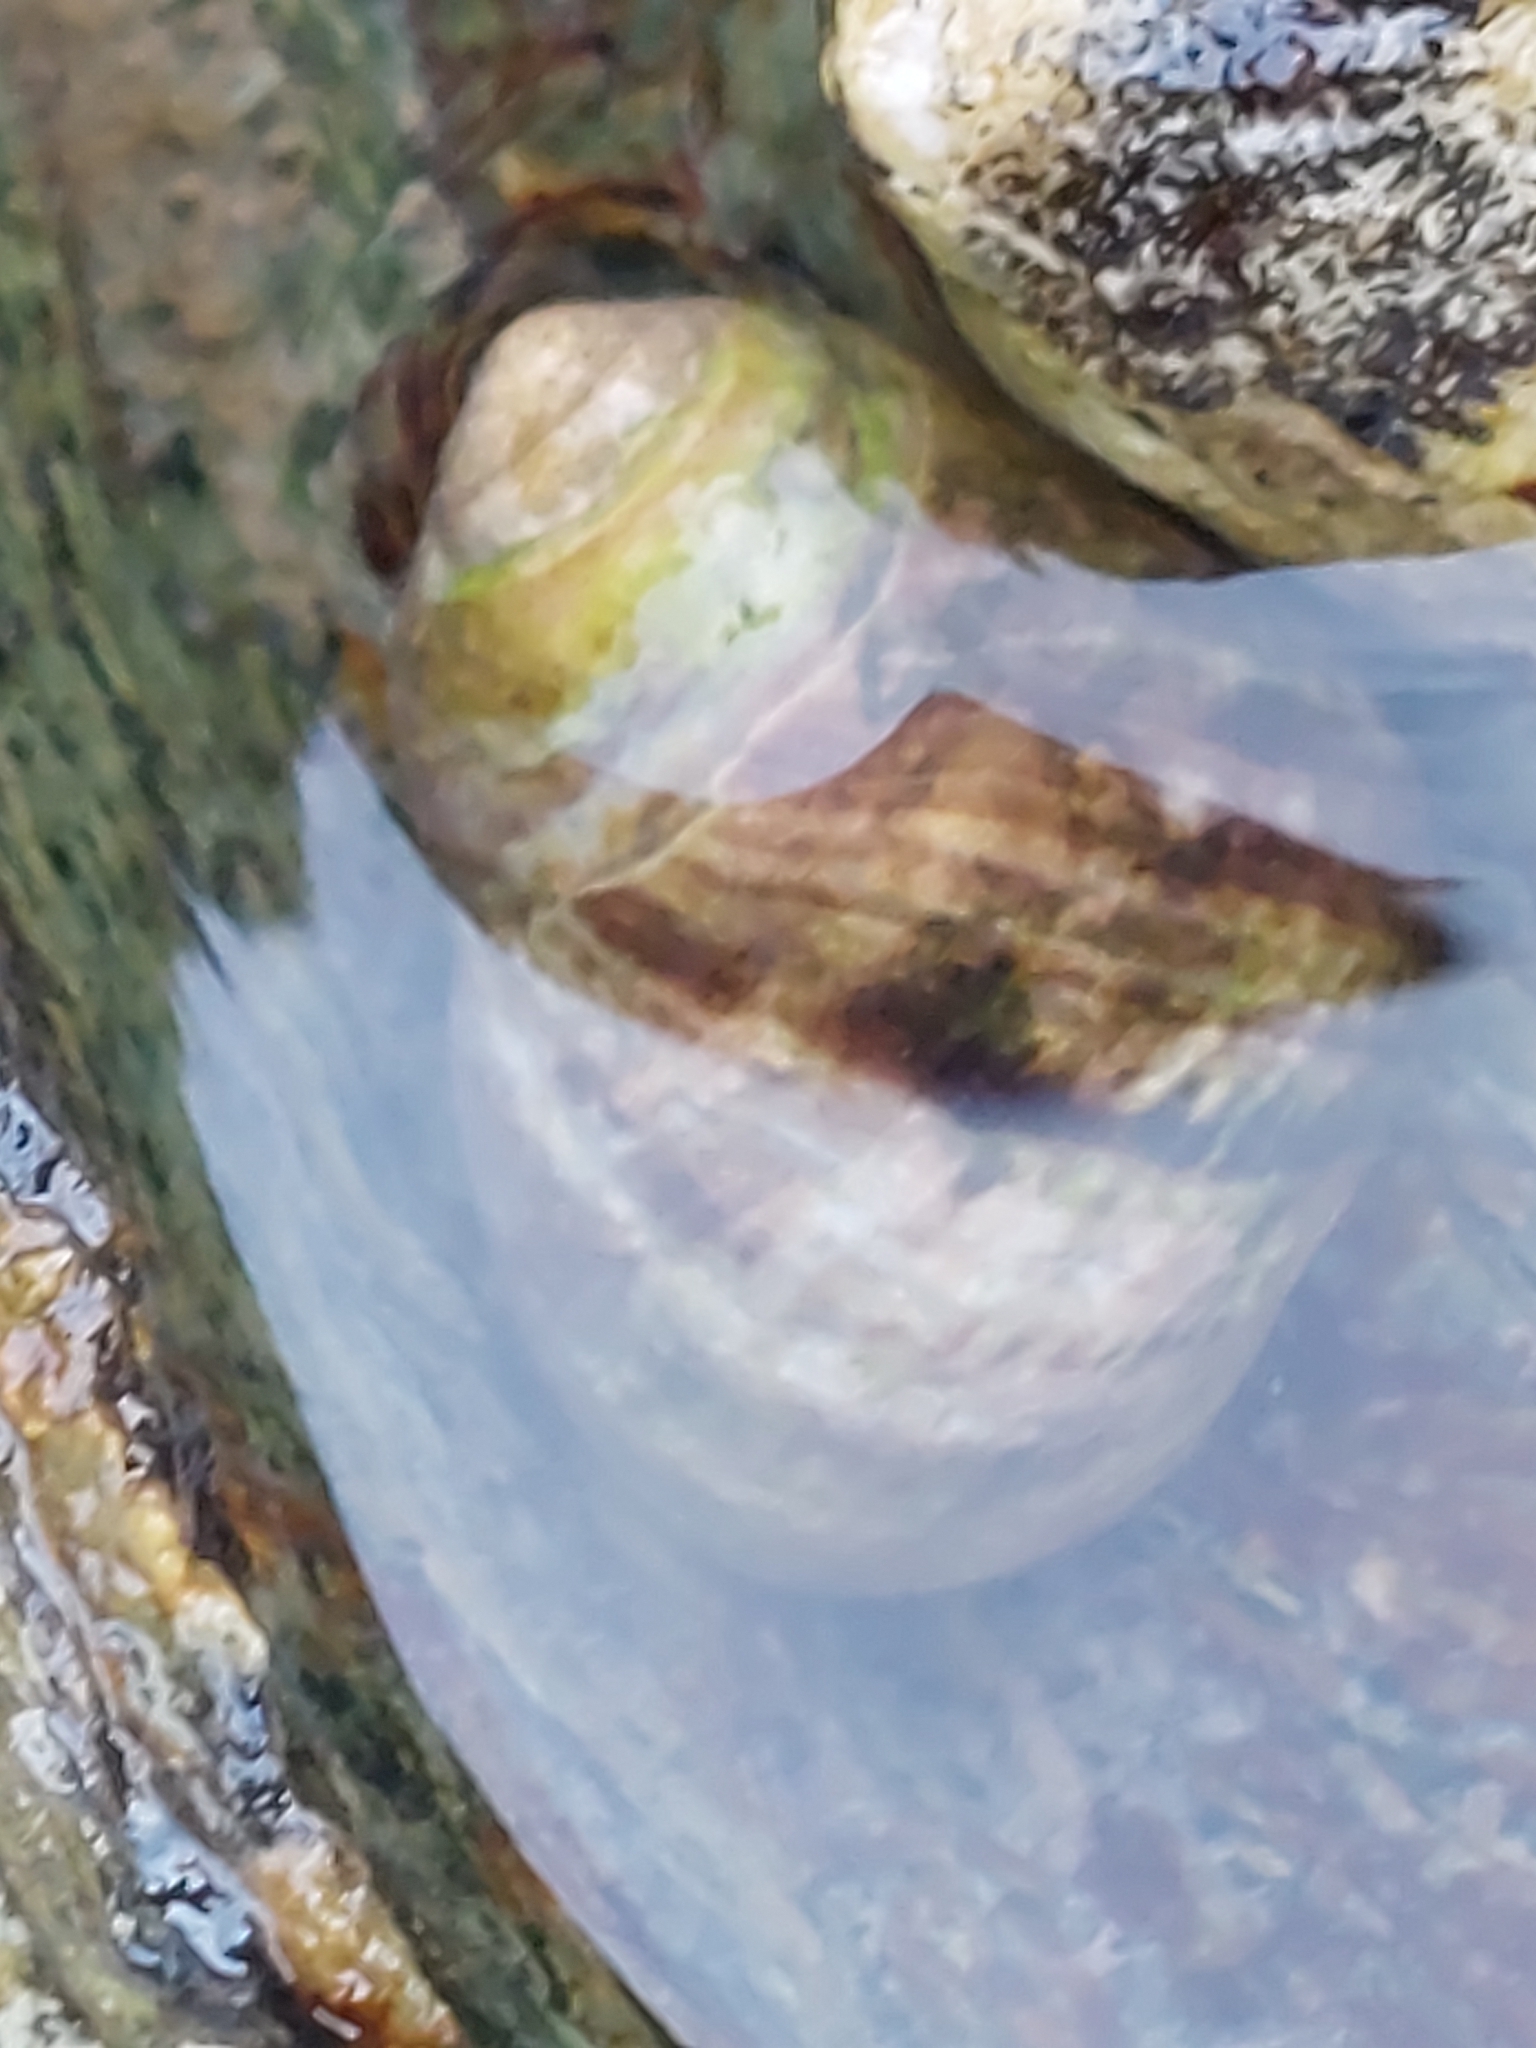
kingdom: Animalia
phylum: Mollusca
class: Gastropoda
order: Littorinimorpha
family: Littorinidae
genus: Littorina
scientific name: Littorina littorea
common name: Common periwinkle
